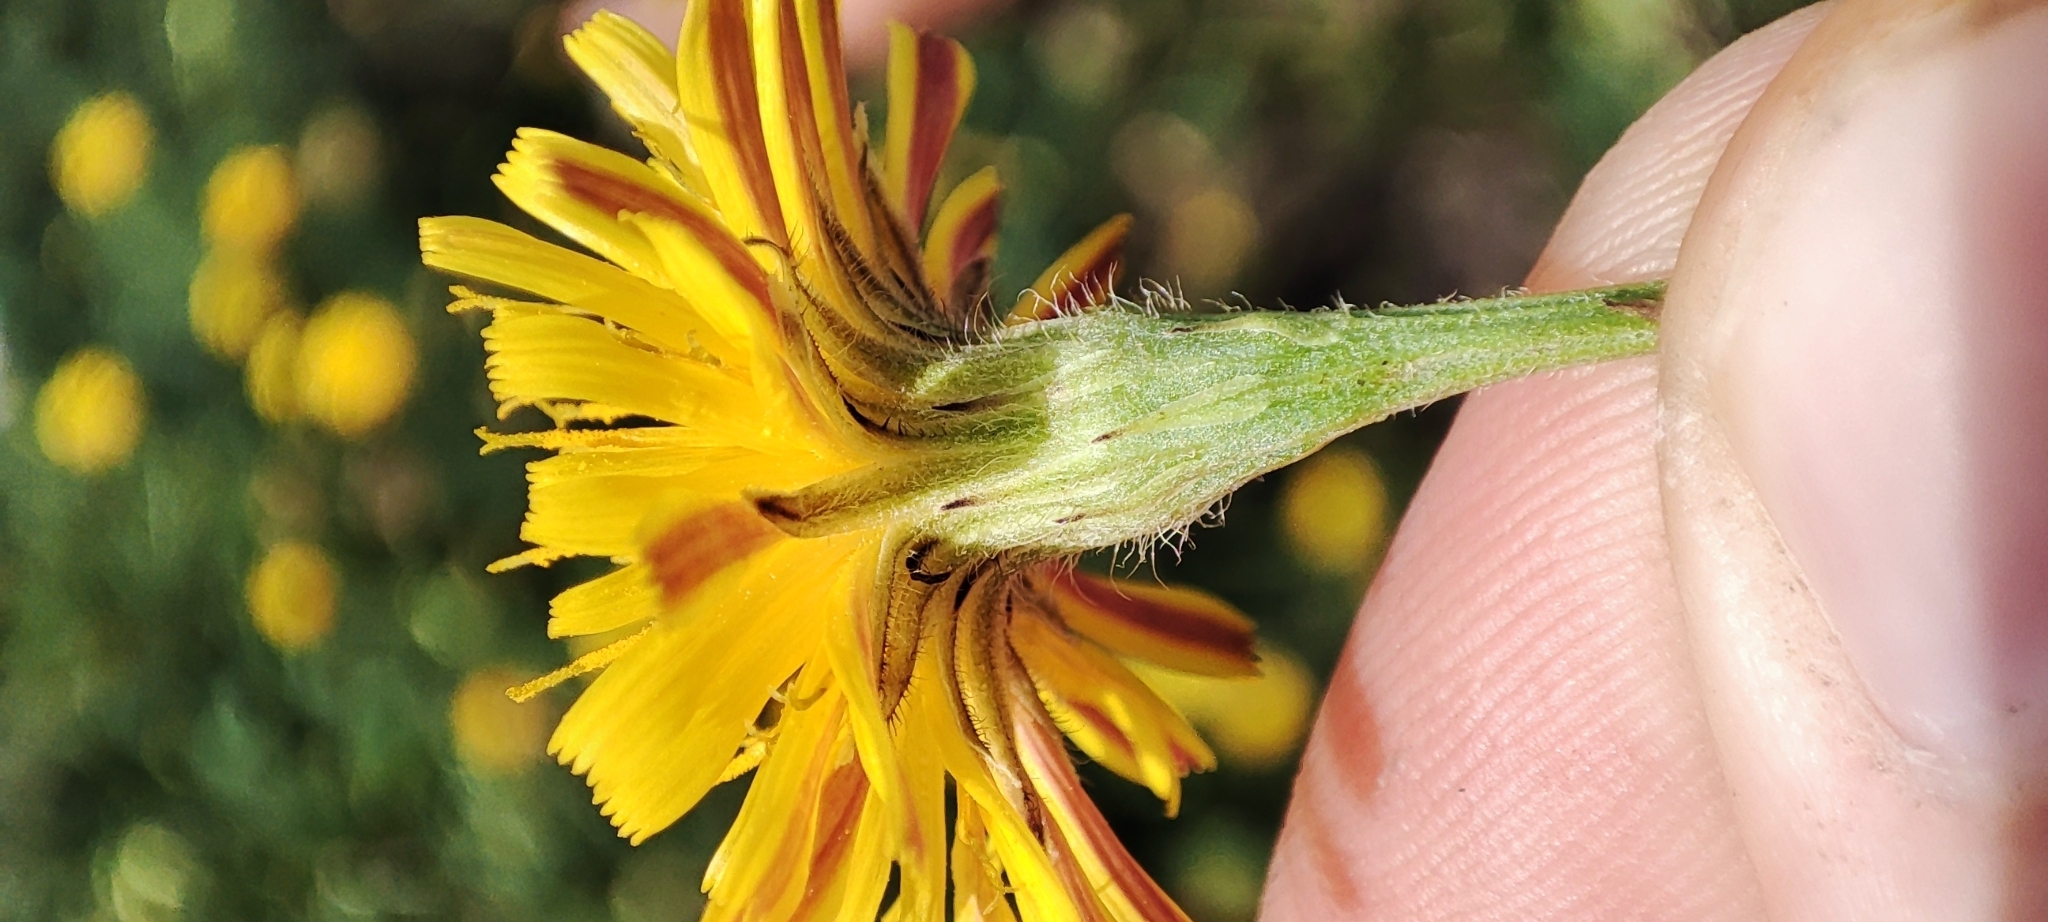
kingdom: Plantae
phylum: Tracheophyta
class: Magnoliopsida
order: Asterales
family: Asteraceae
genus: Scorzoneroides
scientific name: Scorzoneroides autumnalis
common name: Autumn hawkbit
